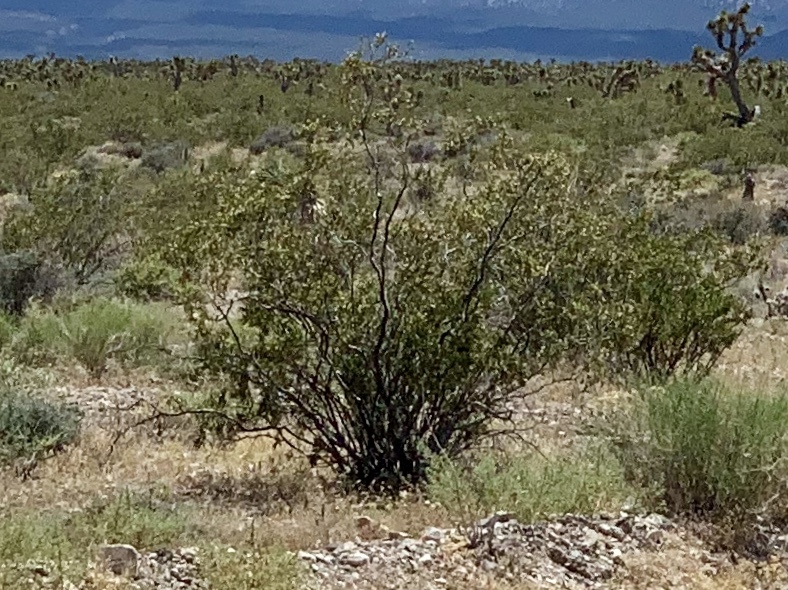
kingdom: Plantae
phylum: Tracheophyta
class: Magnoliopsida
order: Zygophyllales
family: Zygophyllaceae
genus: Larrea
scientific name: Larrea tridentata
